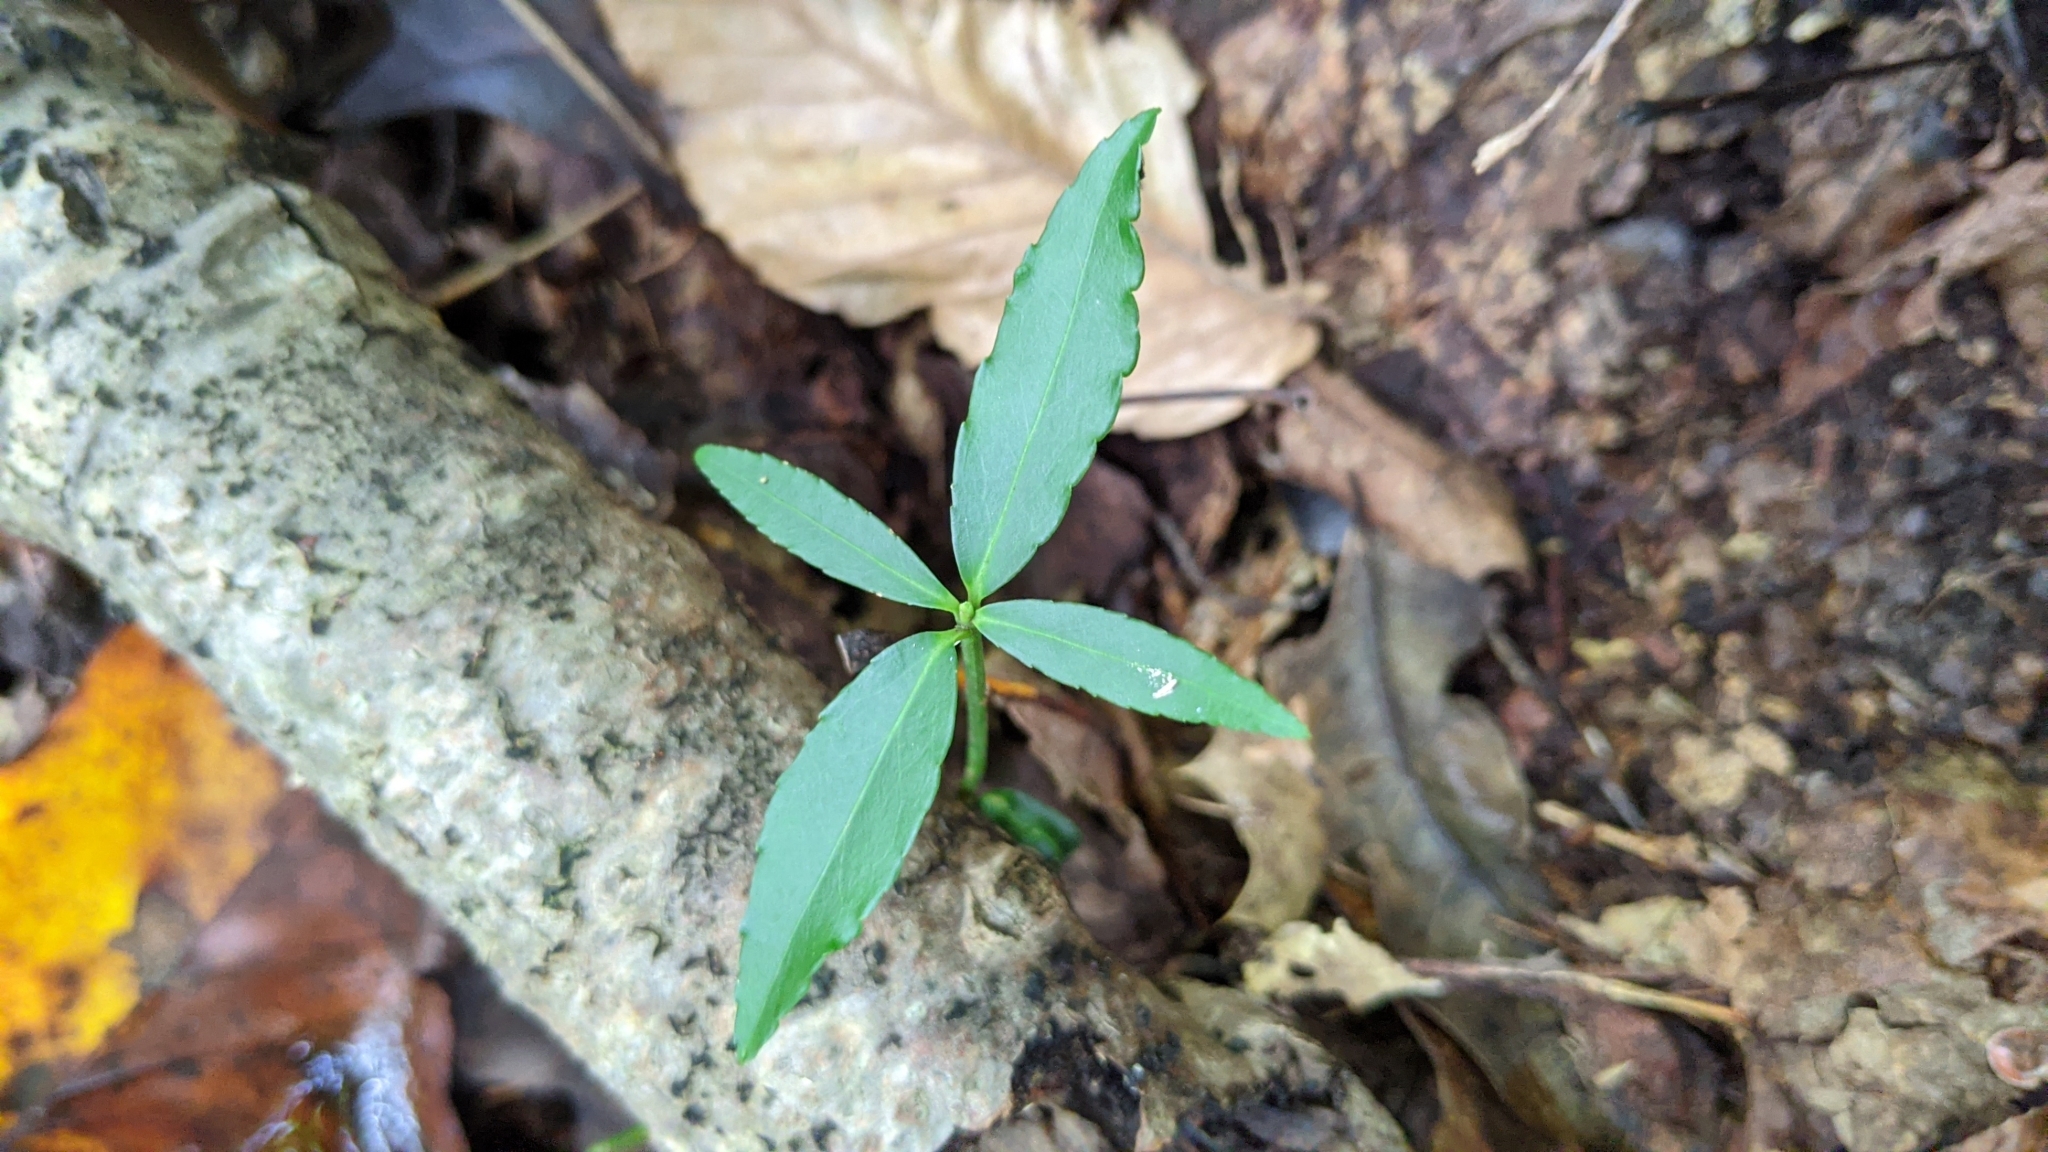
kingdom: Plantae
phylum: Tracheophyta
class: Magnoliopsida
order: Celastrales
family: Celastraceae
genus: Euonymus
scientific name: Euonymus americanus
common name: Bursting-heart
